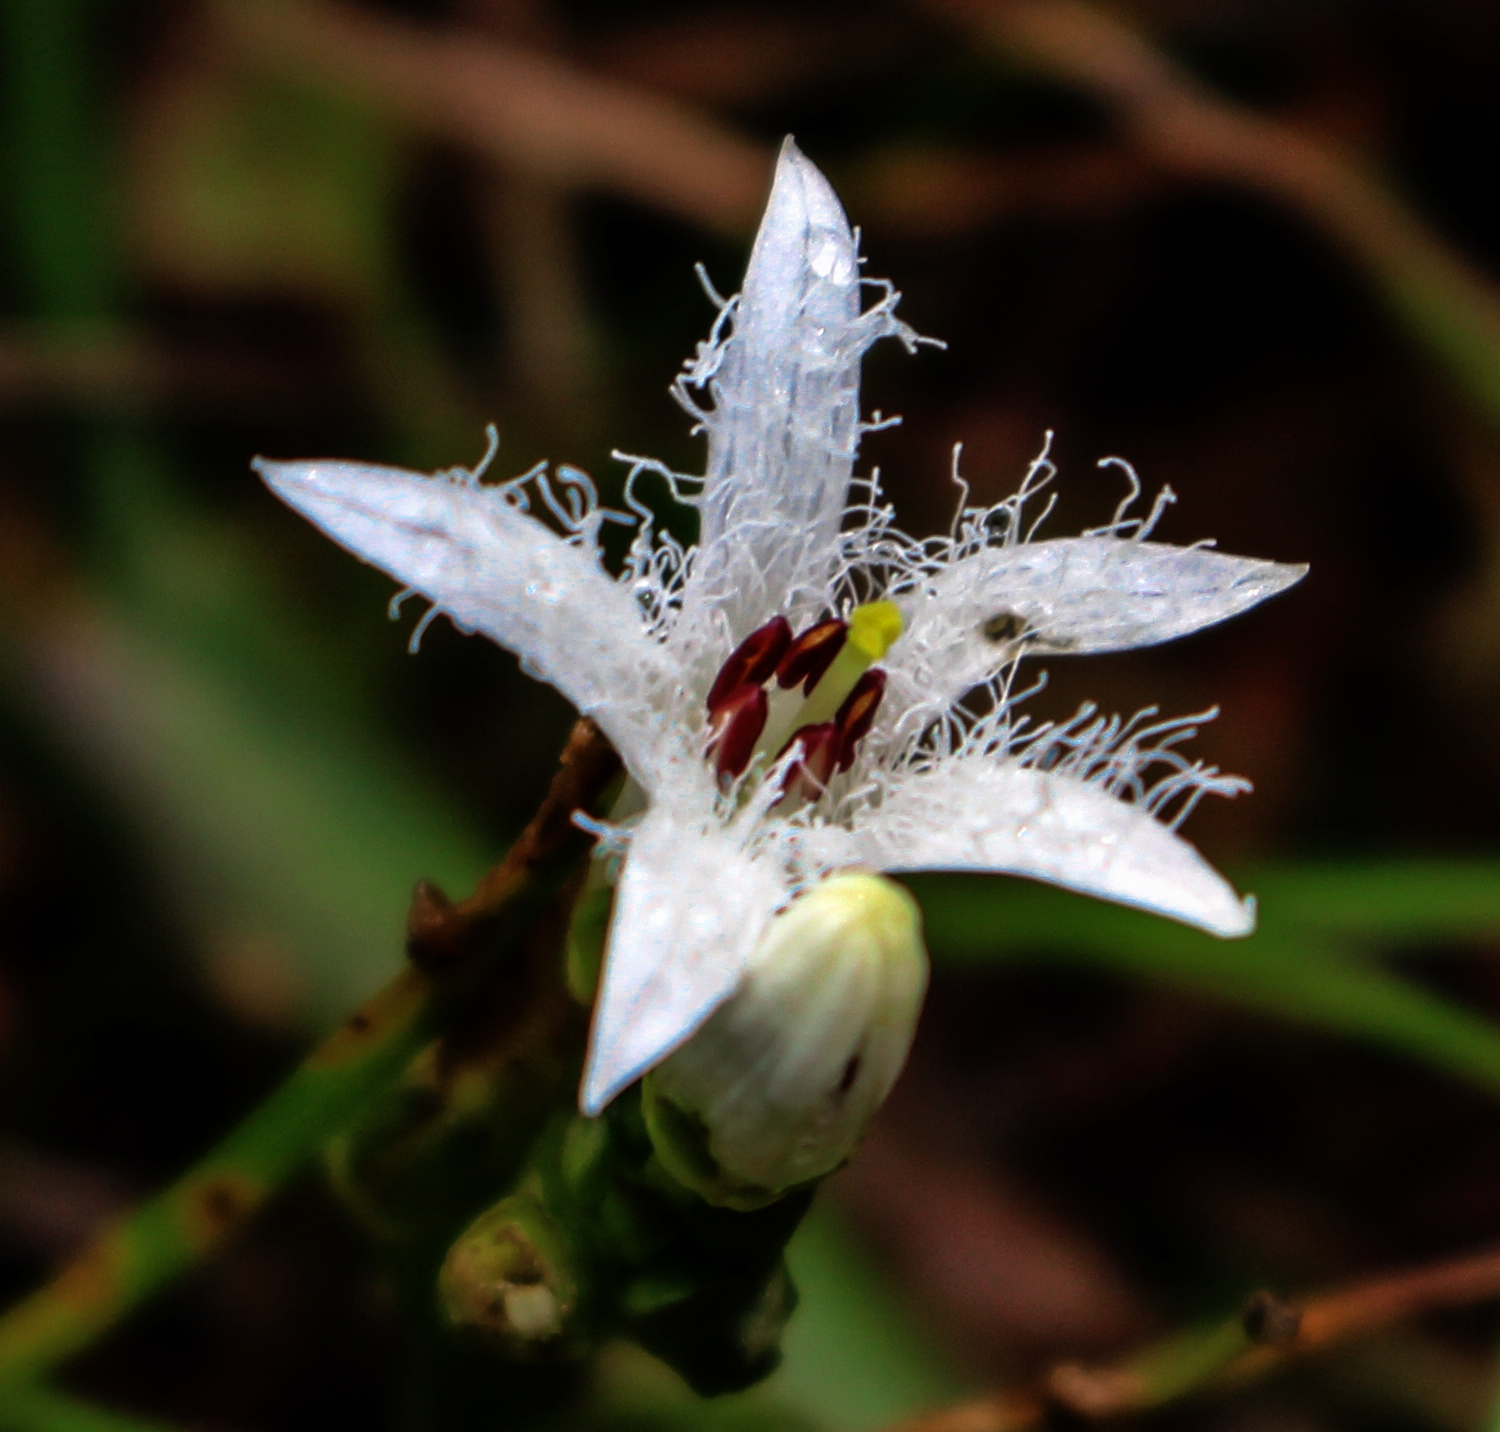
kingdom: Plantae
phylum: Tracheophyta
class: Magnoliopsida
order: Asterales
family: Menyanthaceae
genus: Menyanthes
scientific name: Menyanthes trifoliata
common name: Bogbean
